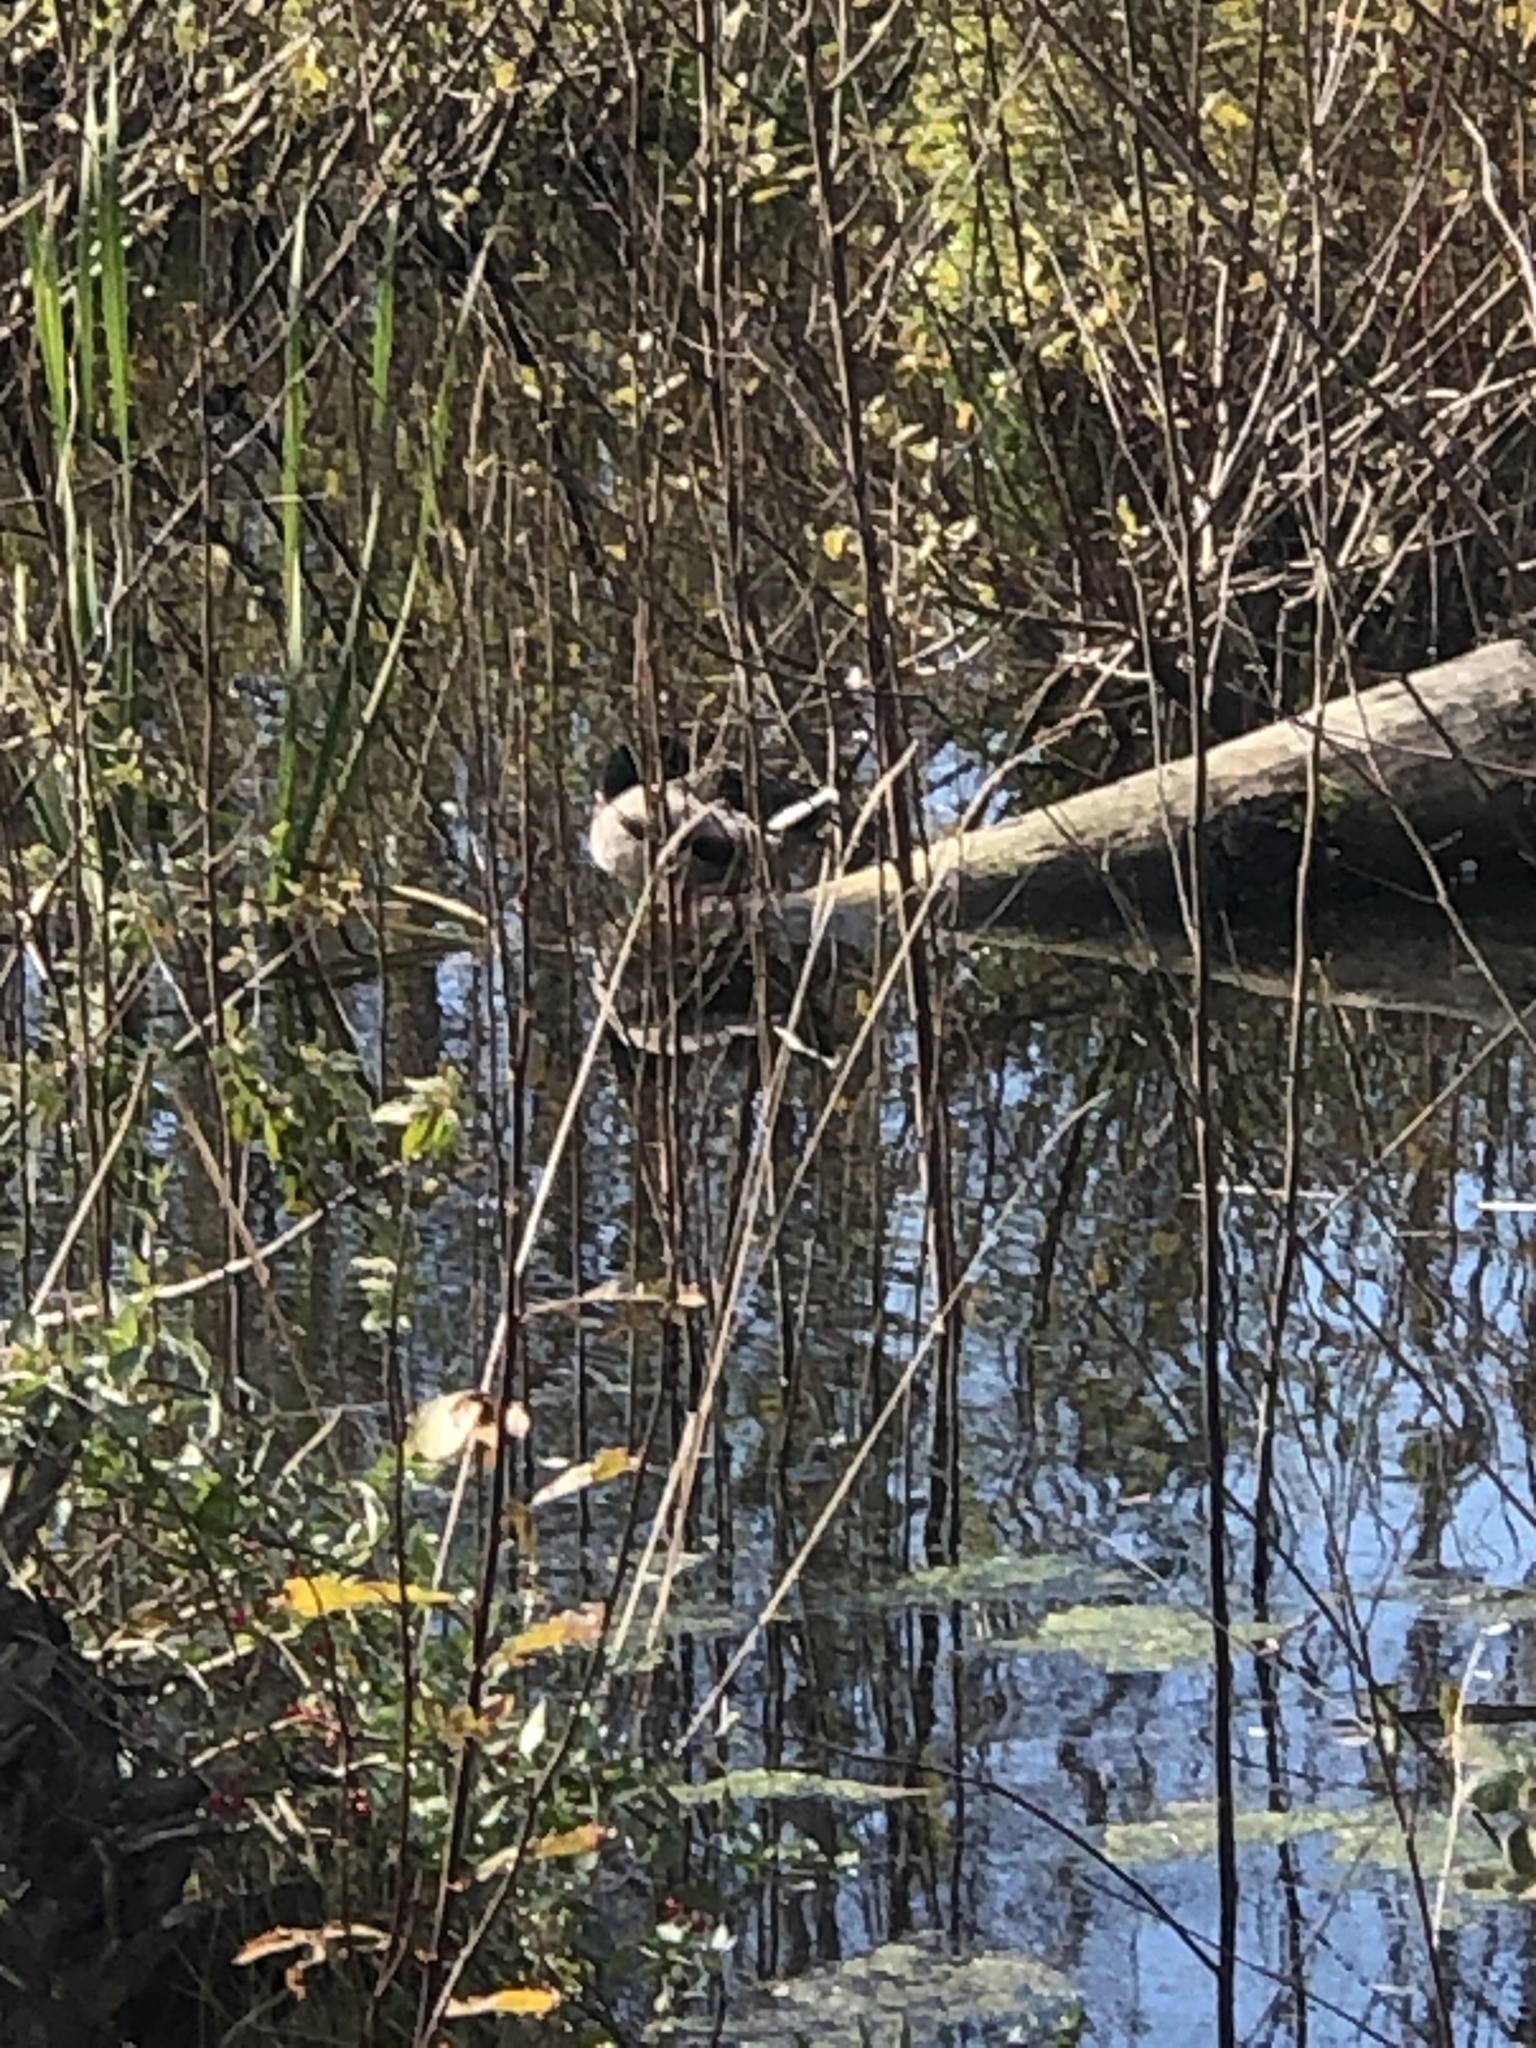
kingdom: Animalia
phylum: Chordata
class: Aves
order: Anseriformes
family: Anatidae
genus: Anas
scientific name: Anas platyrhynchos
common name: Mallard
